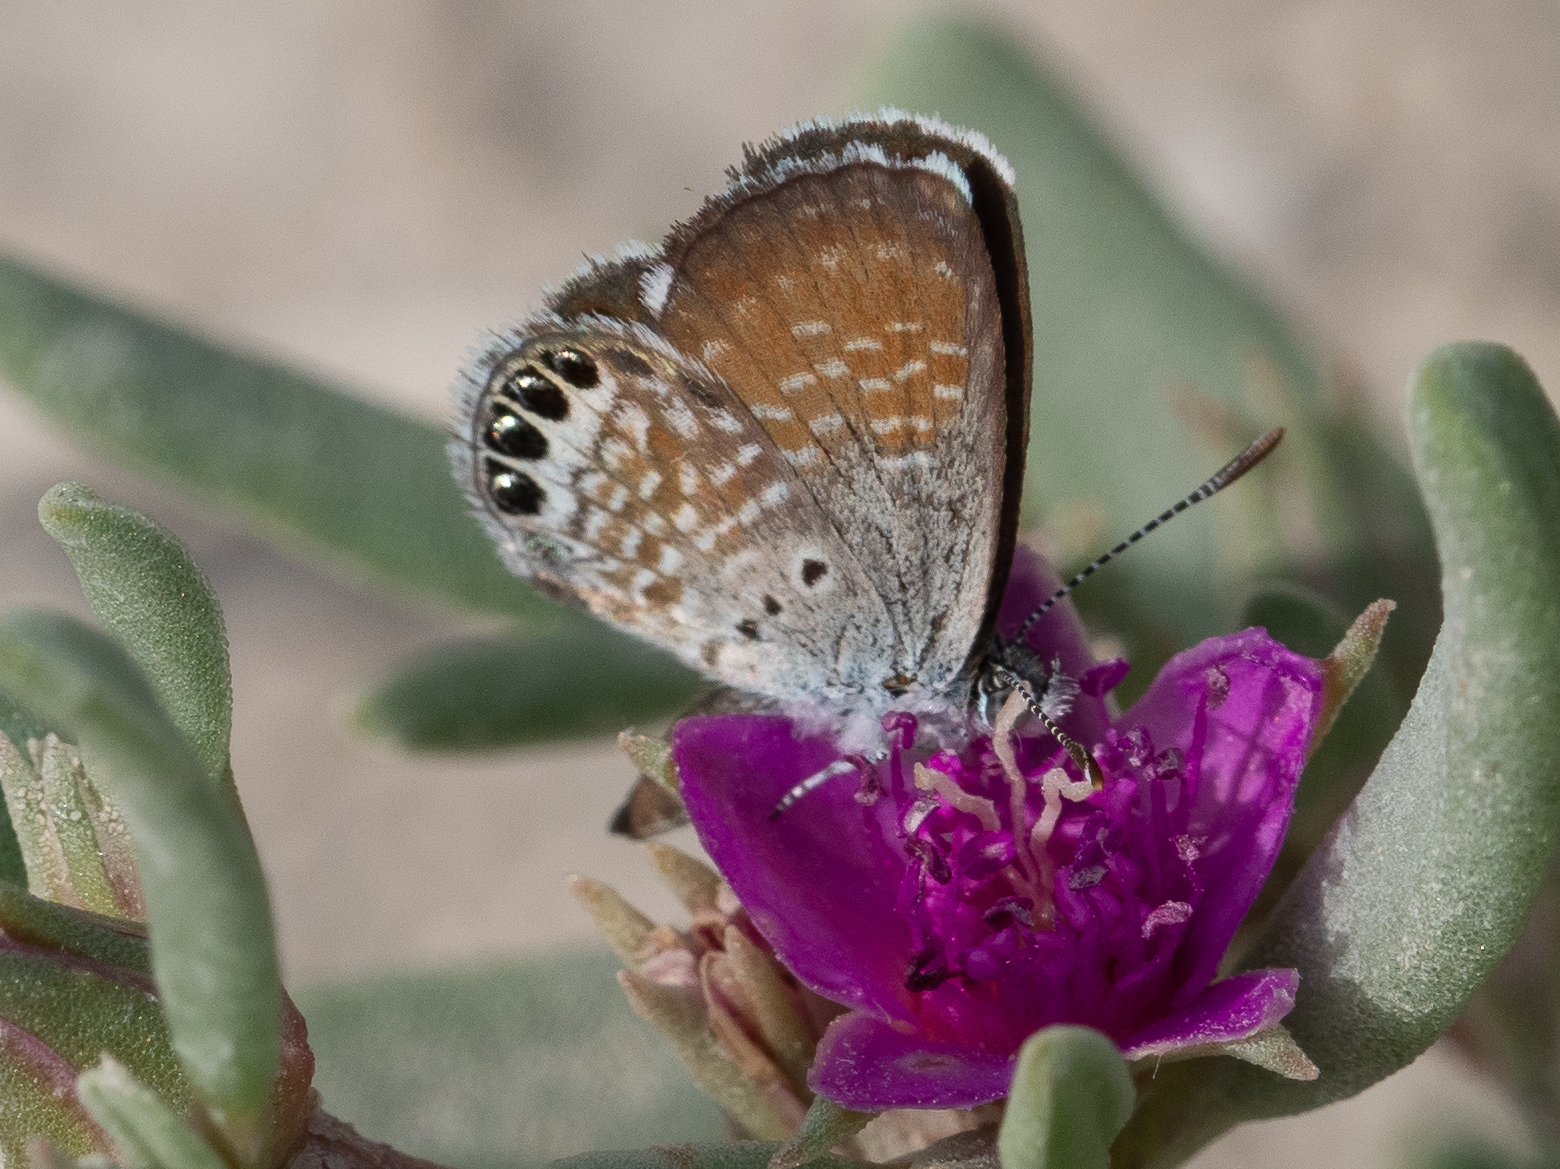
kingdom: Animalia
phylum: Arthropoda
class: Insecta
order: Lepidoptera
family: Lycaenidae
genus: Brephidium
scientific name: Brephidium exilis
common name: Pygmy blue
